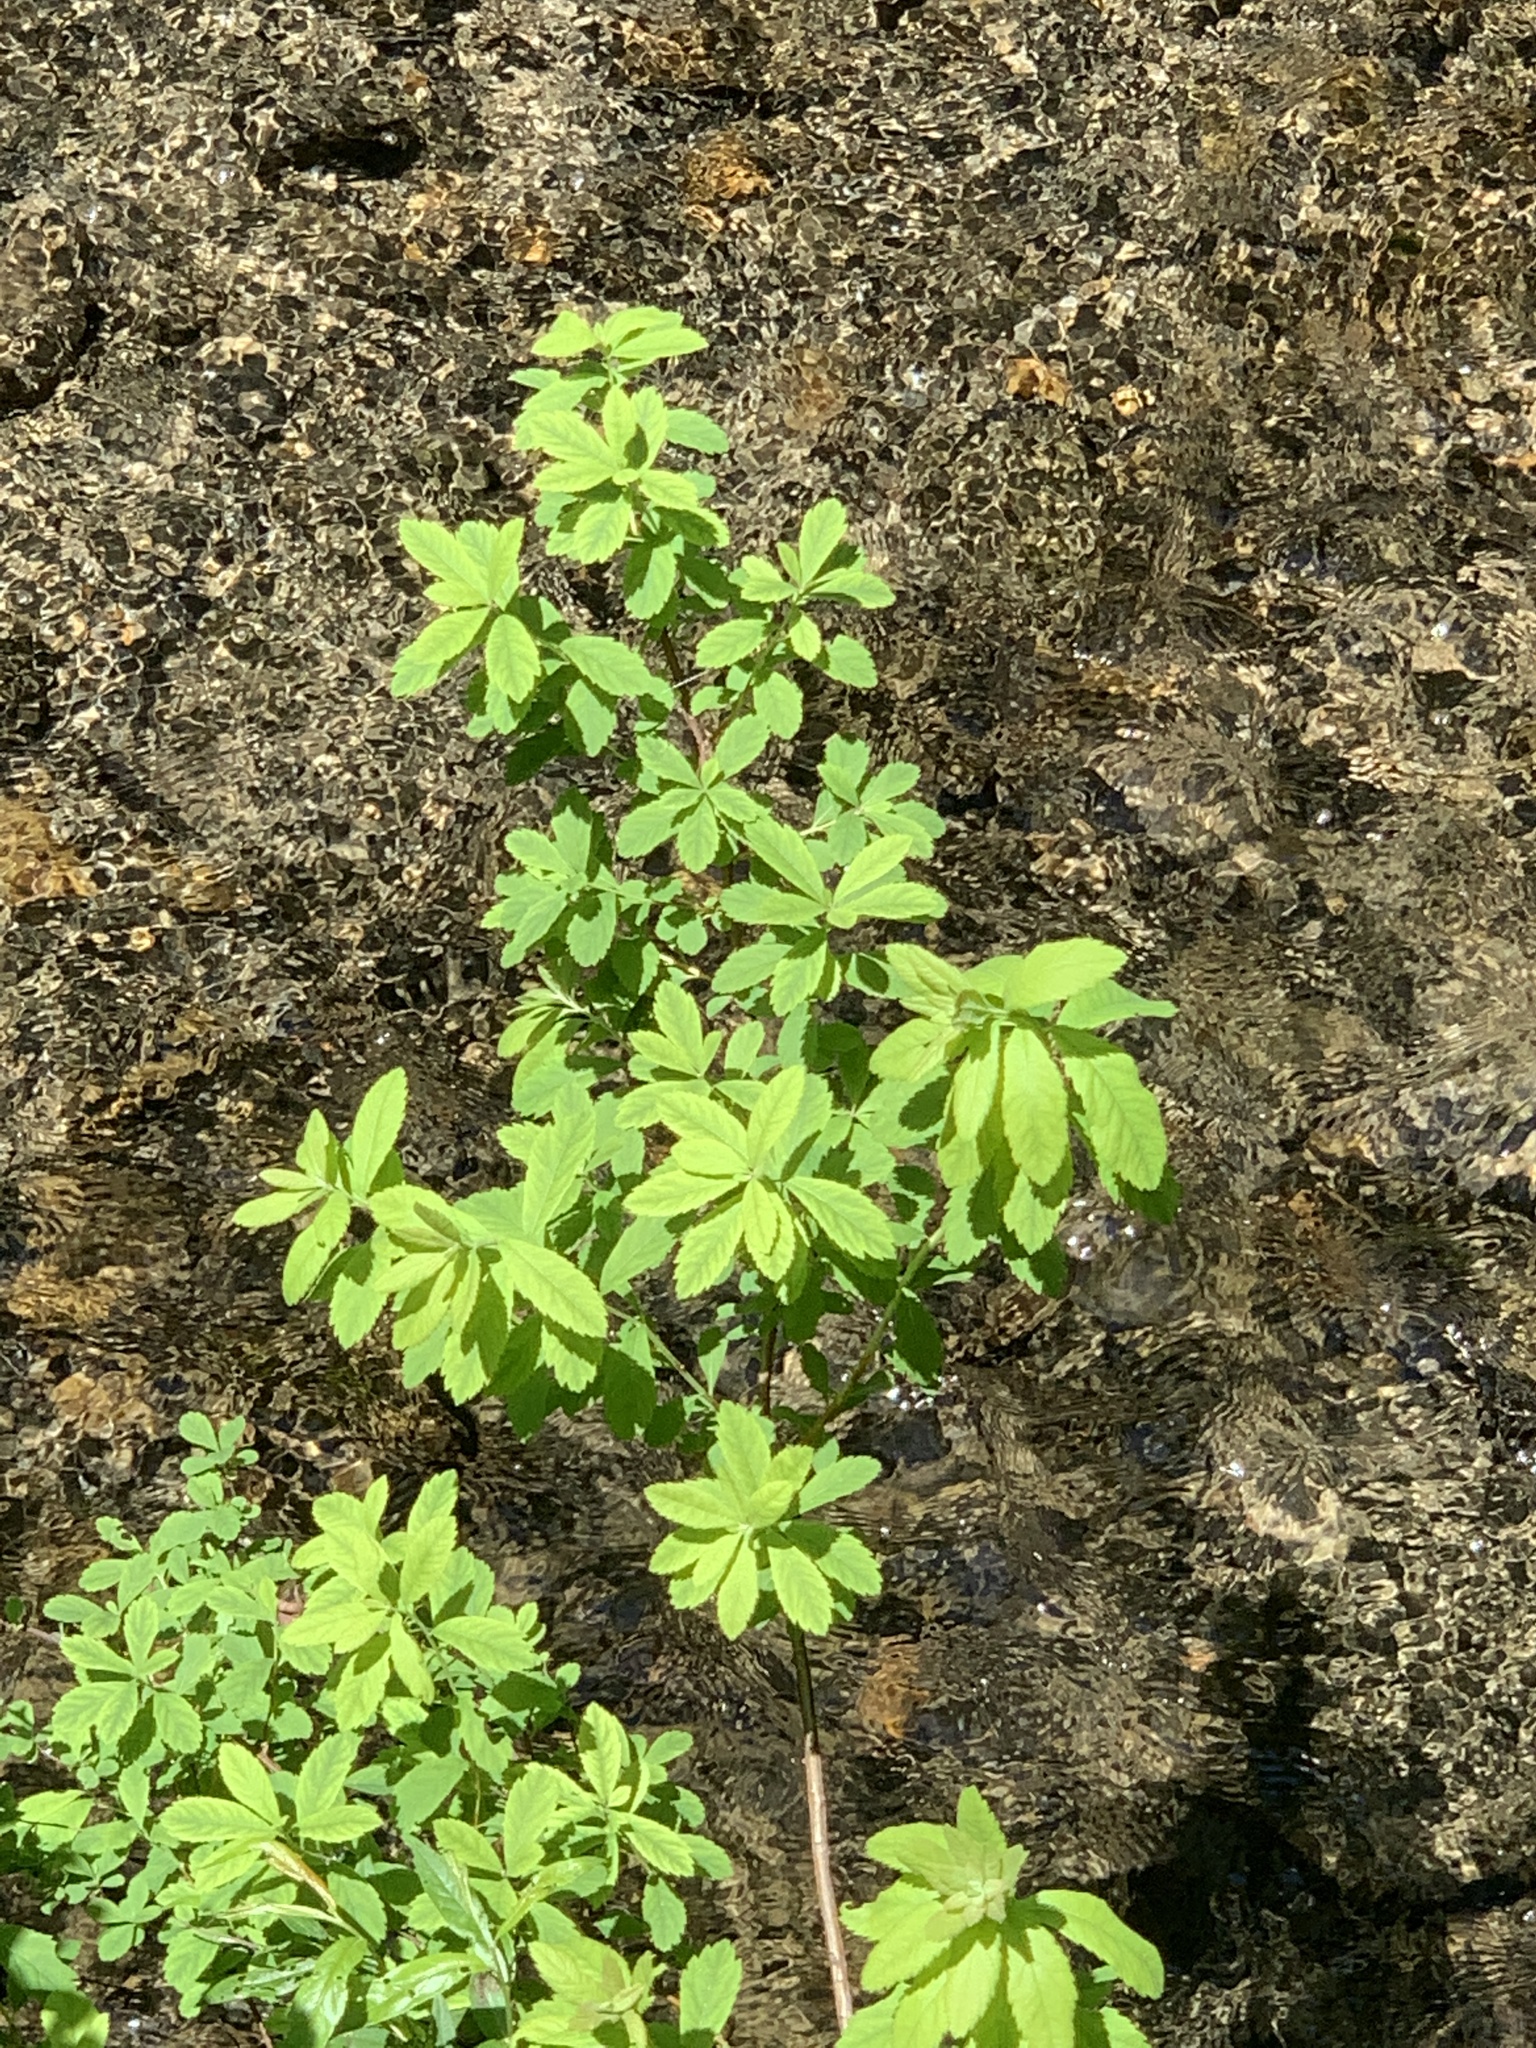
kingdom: Plantae
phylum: Tracheophyta
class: Magnoliopsida
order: Rosales
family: Rosaceae
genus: Spiraea
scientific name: Spiraea alba
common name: Pale bridewort
